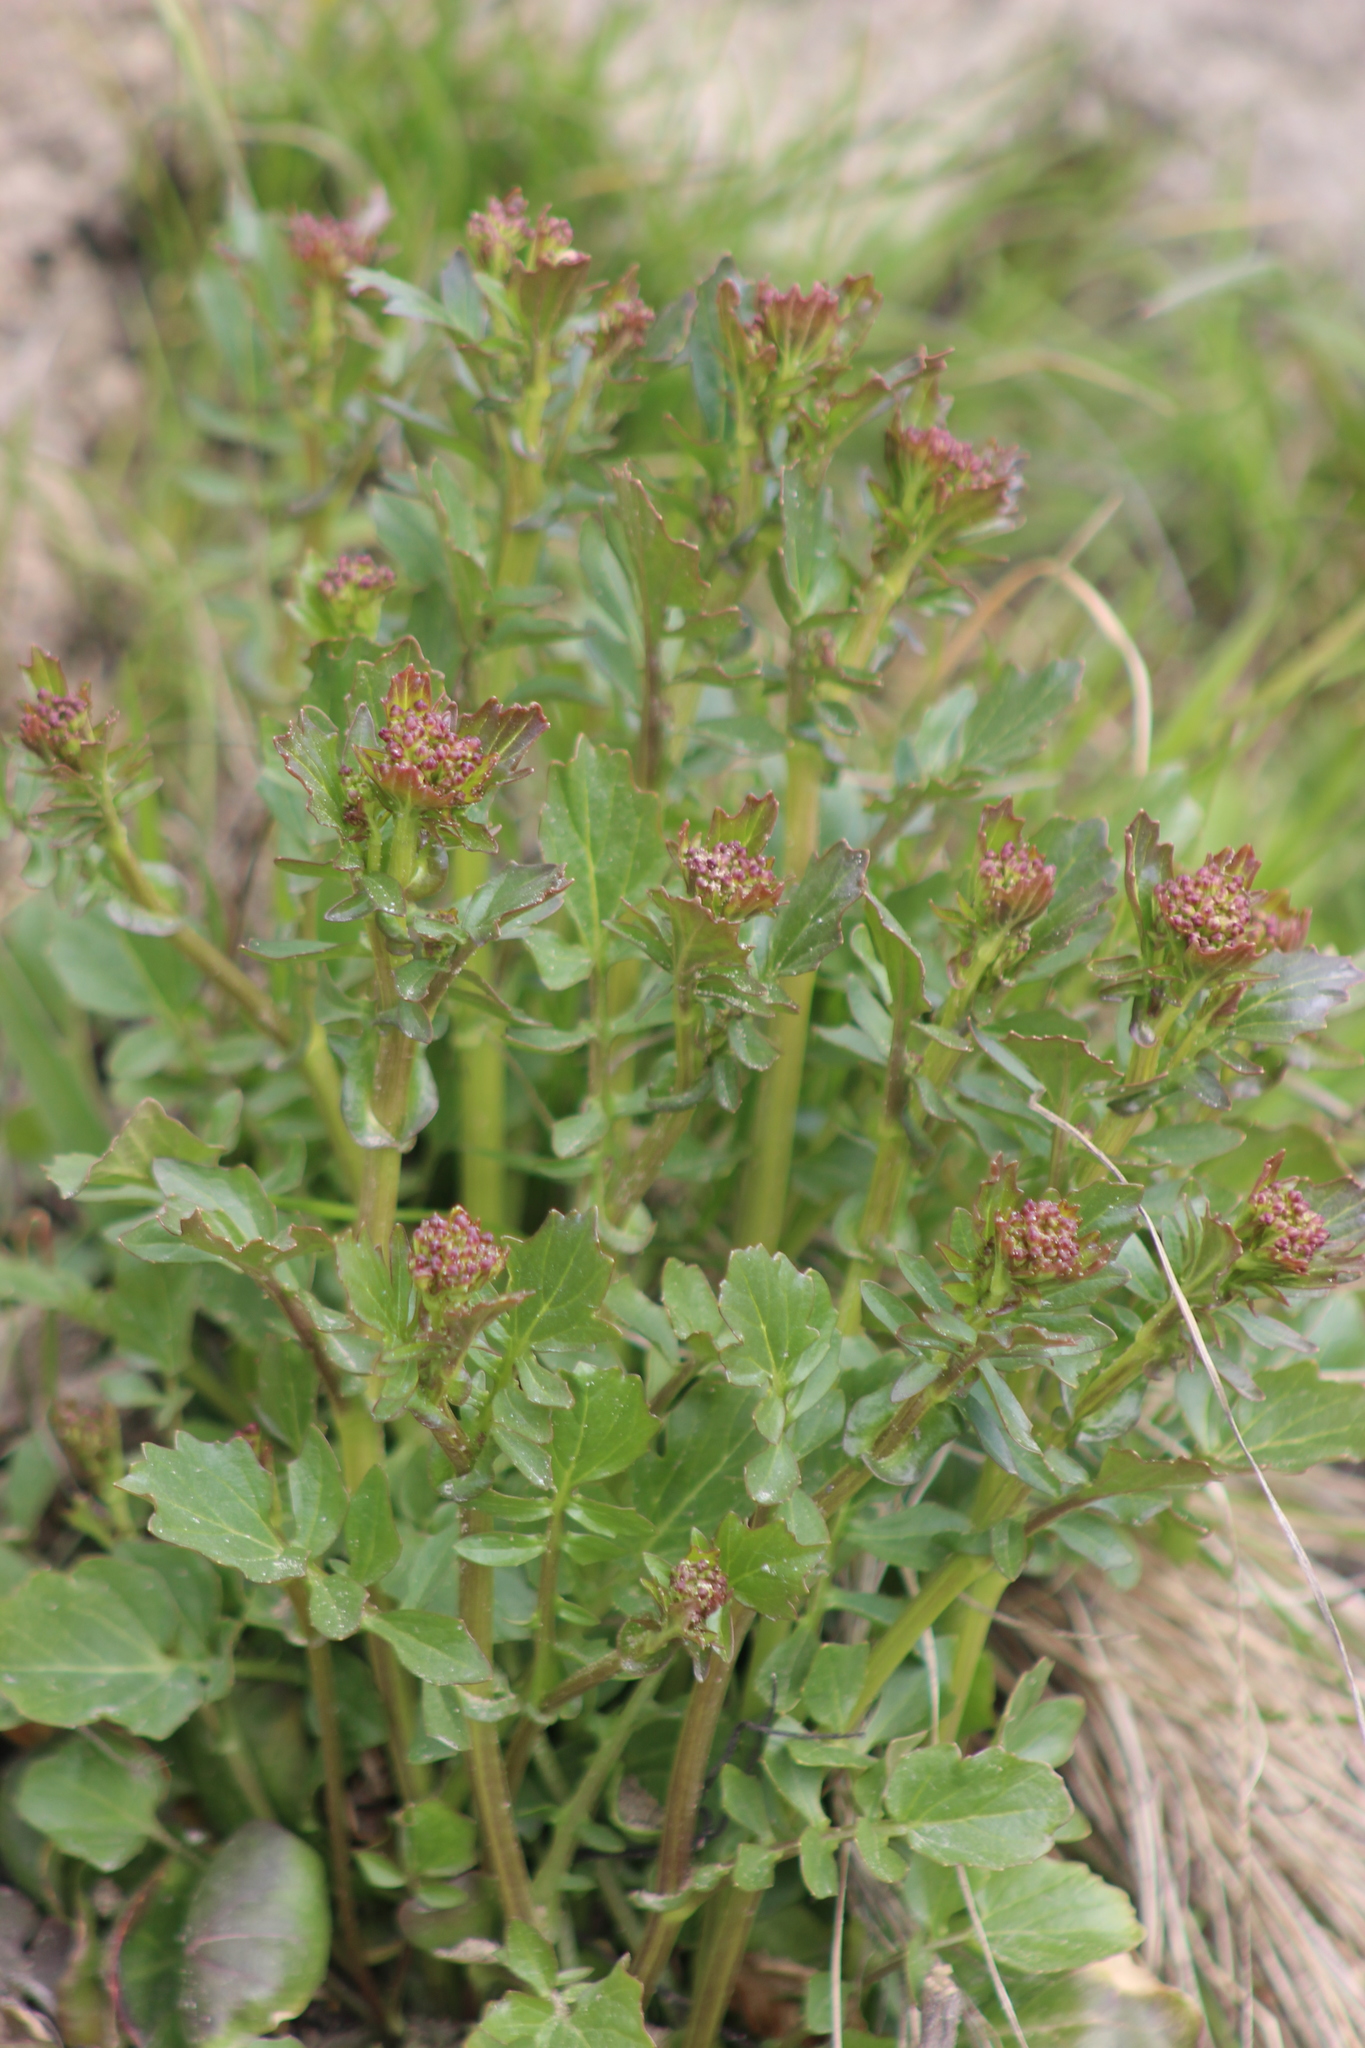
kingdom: Plantae
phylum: Tracheophyta
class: Magnoliopsida
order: Brassicales
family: Brassicaceae
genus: Barbarea
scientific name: Barbarea vulgaris
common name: Cressy-greens
